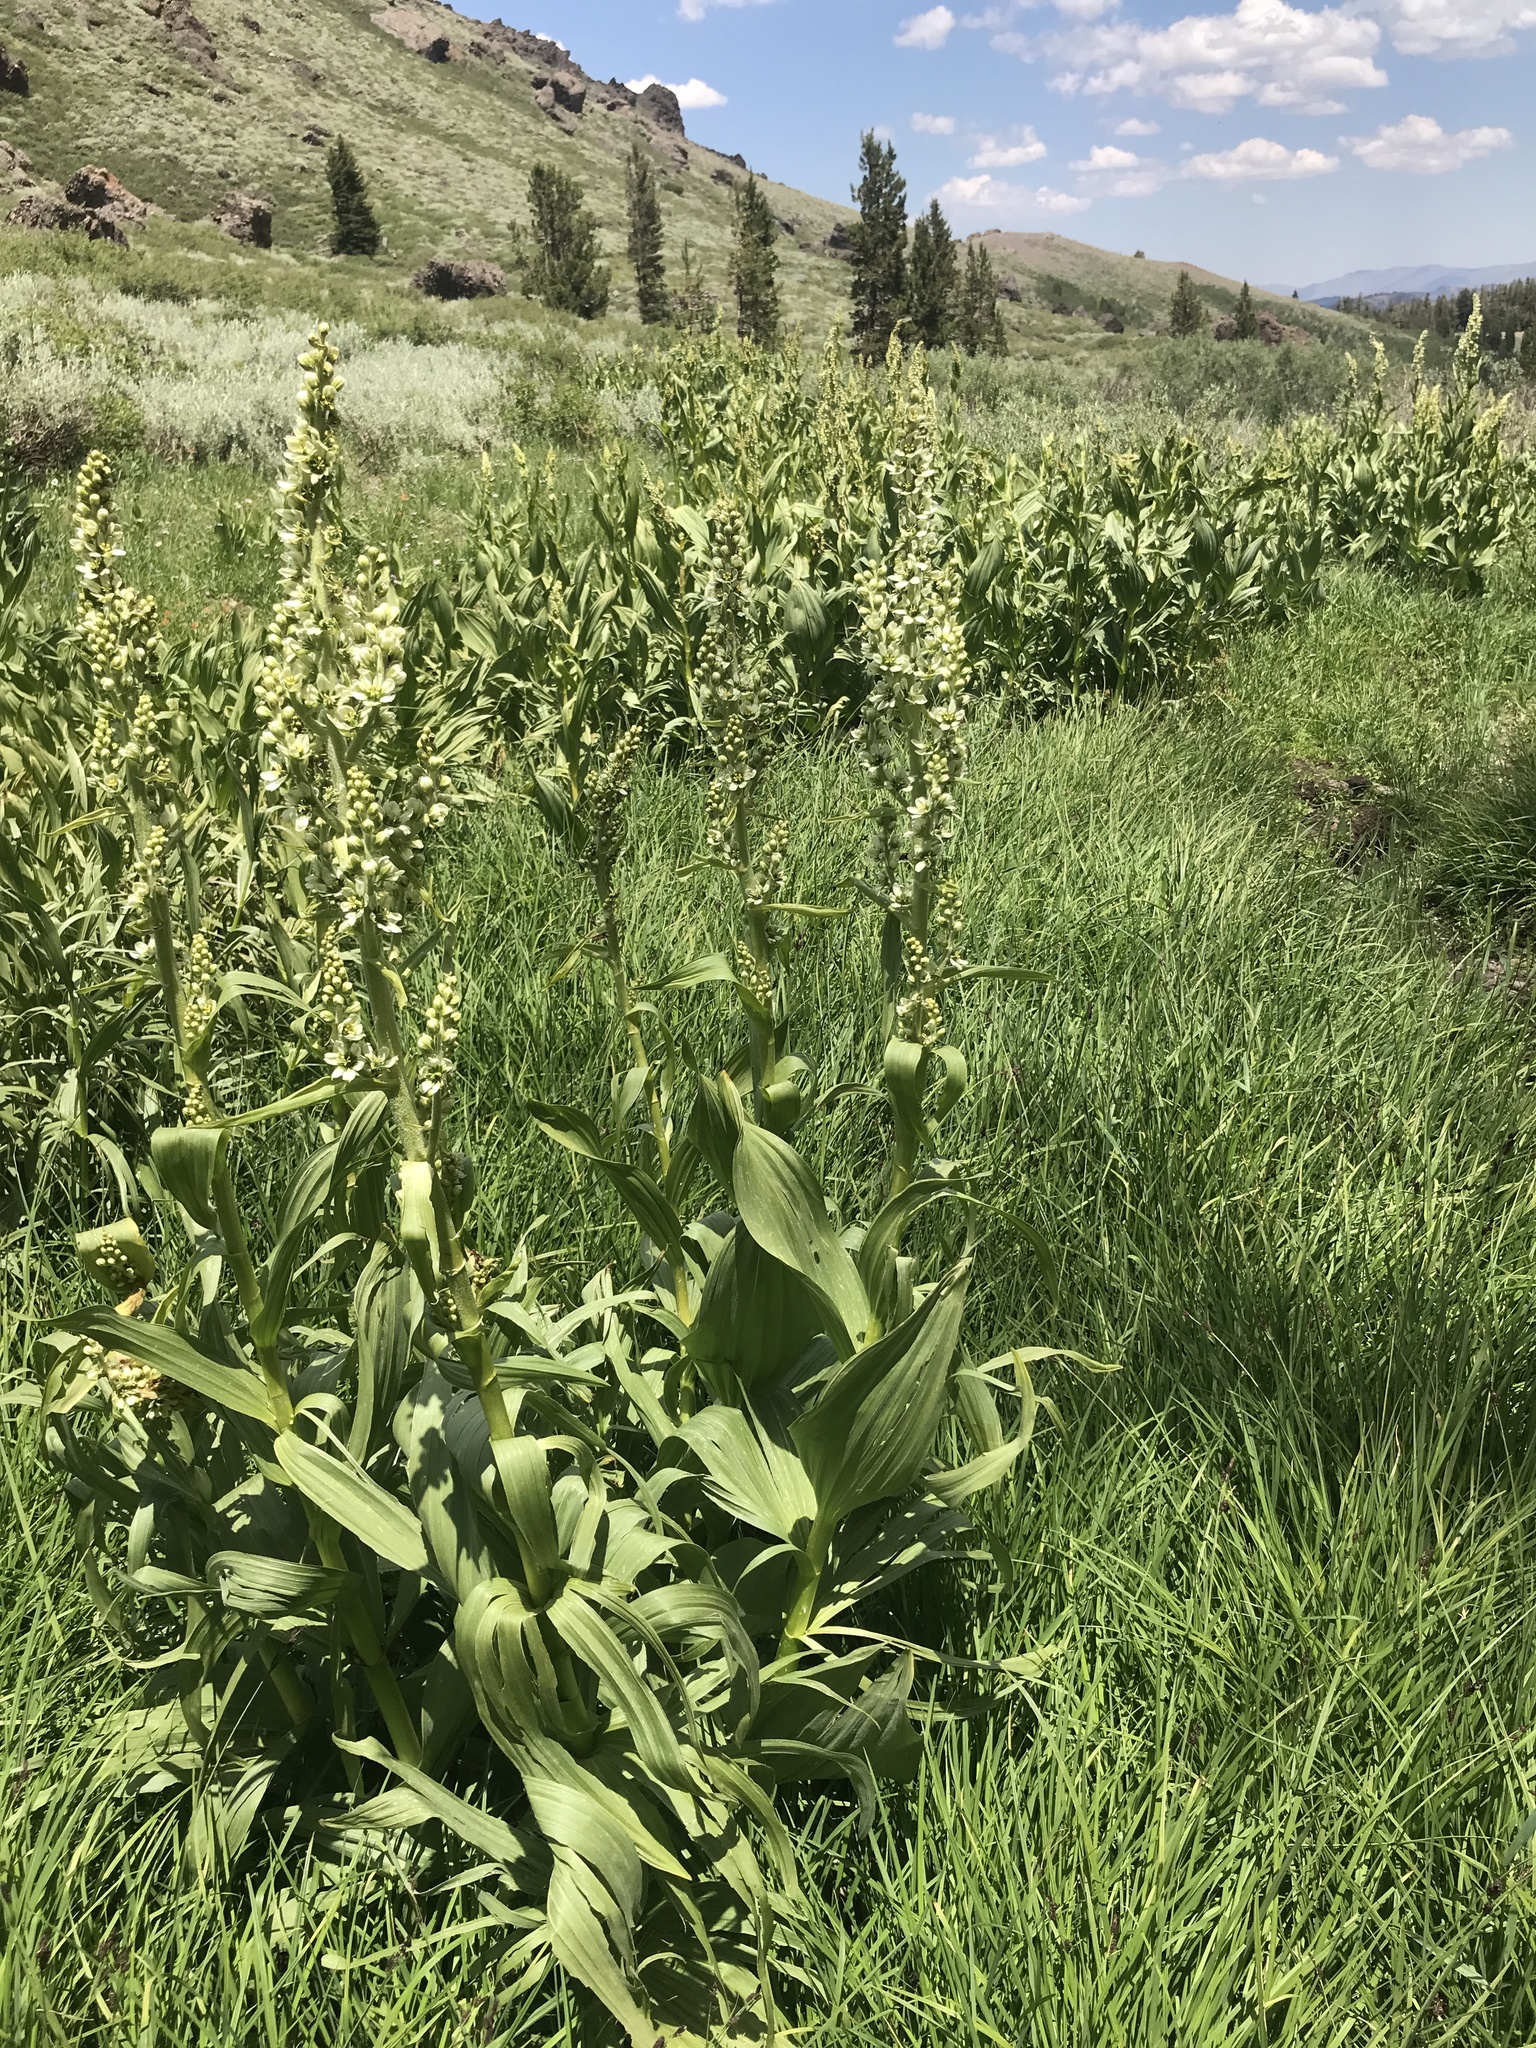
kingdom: Plantae
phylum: Tracheophyta
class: Liliopsida
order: Liliales
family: Melanthiaceae
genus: Veratrum
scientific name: Veratrum californicum
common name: California veratrum
